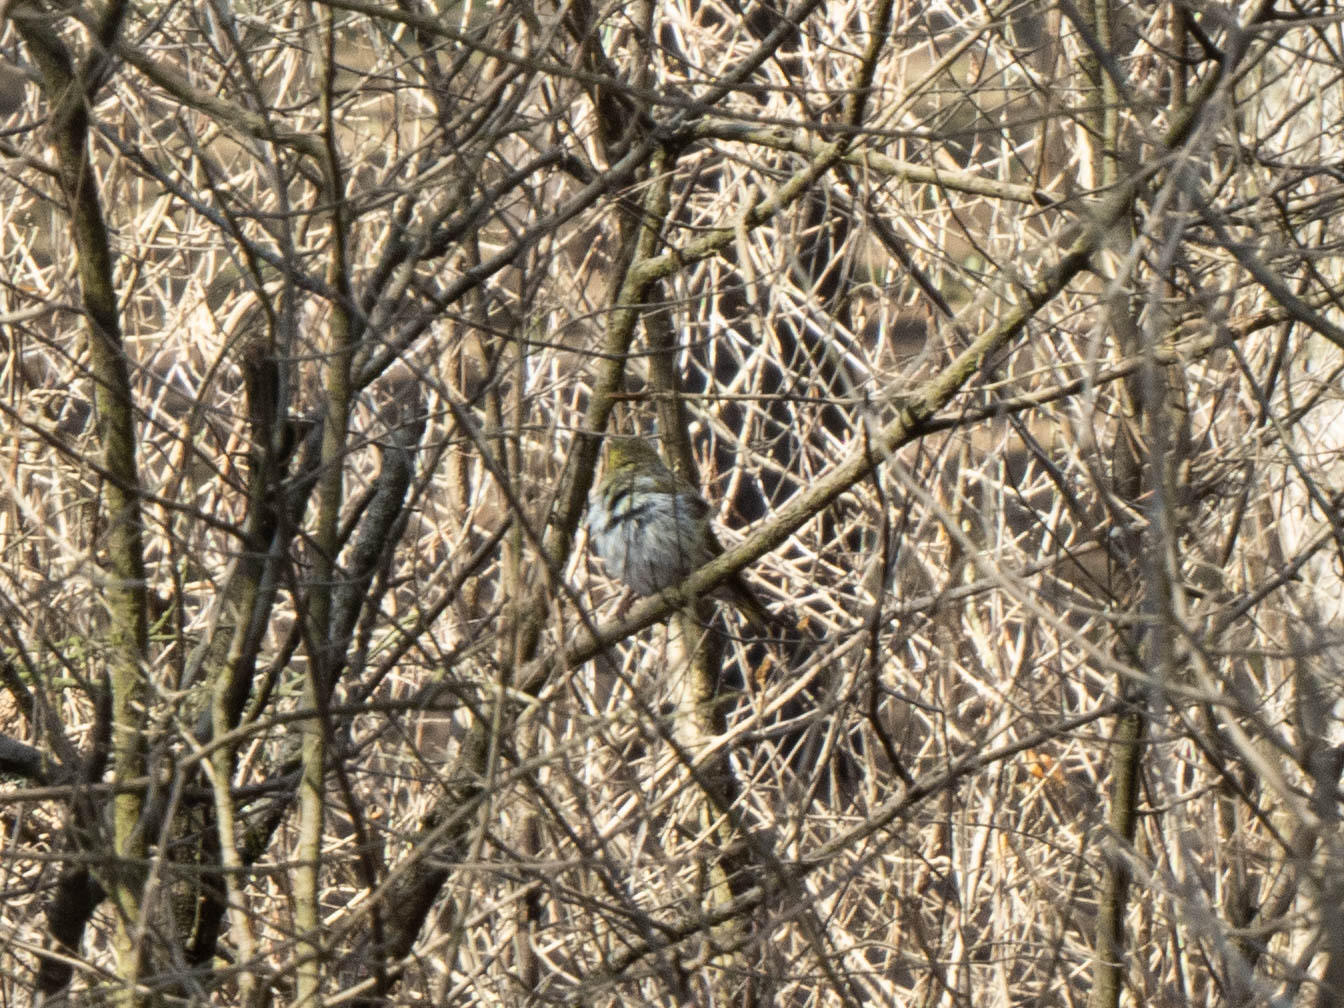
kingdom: Animalia
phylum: Chordata
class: Aves
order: Passeriformes
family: Fringillidae
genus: Spinus
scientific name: Spinus spinus
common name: Eurasian siskin
